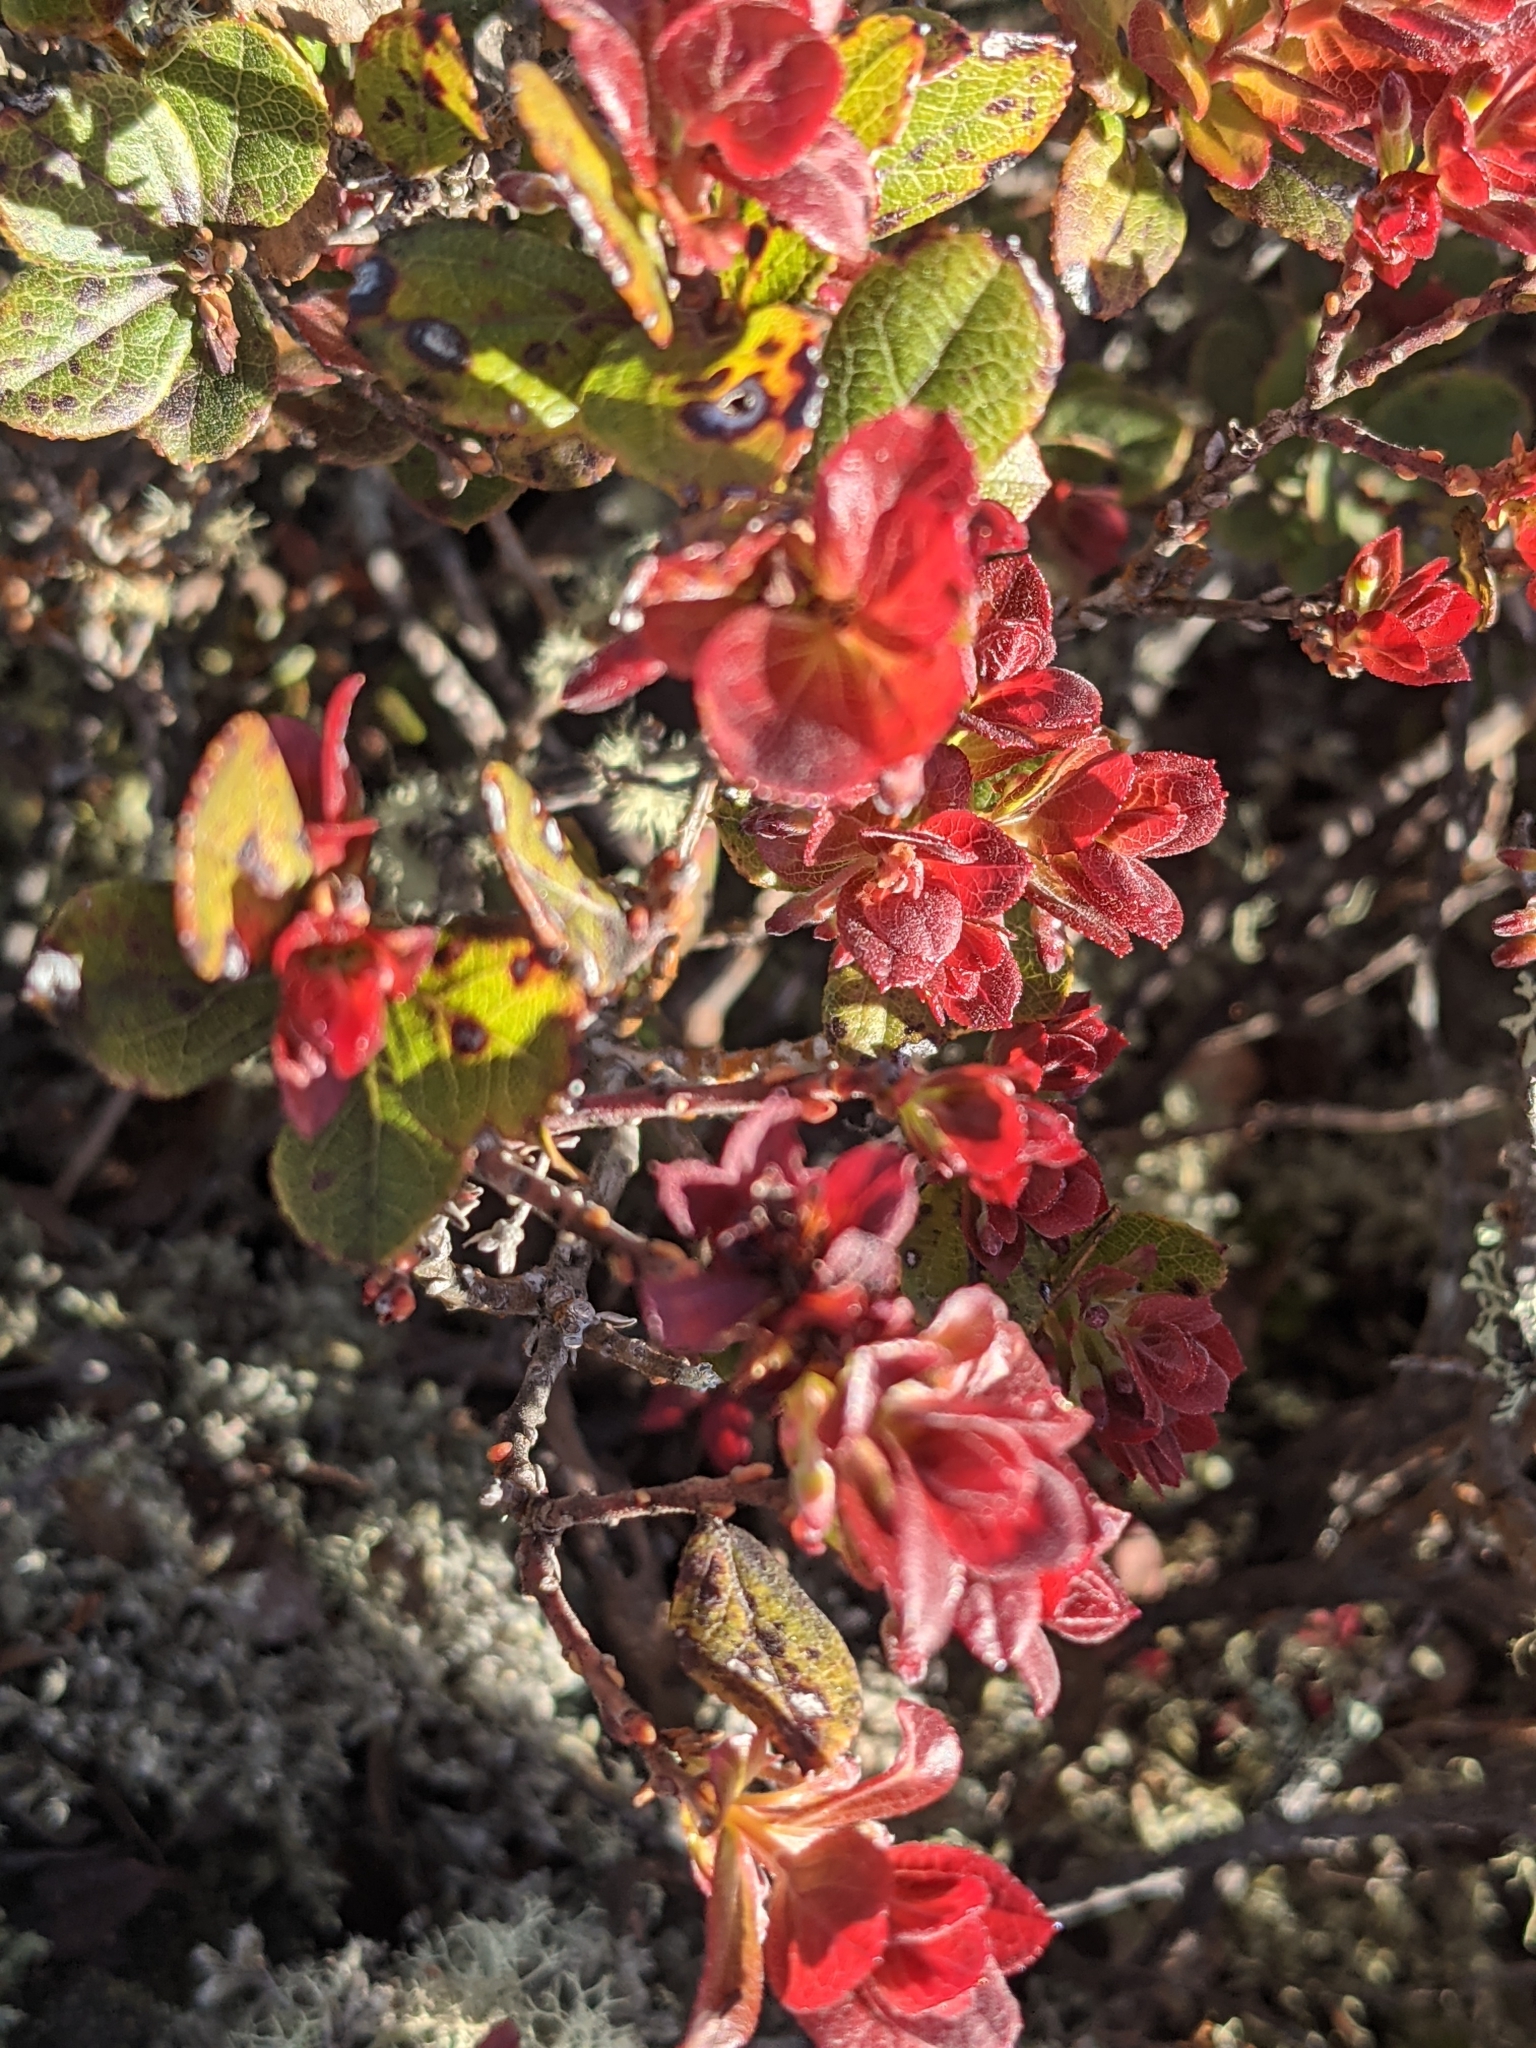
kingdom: Plantae
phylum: Tracheophyta
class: Magnoliopsida
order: Ericales
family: Ericaceae
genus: Vaccinium
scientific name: Vaccinium reticulatum
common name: Ohelo
